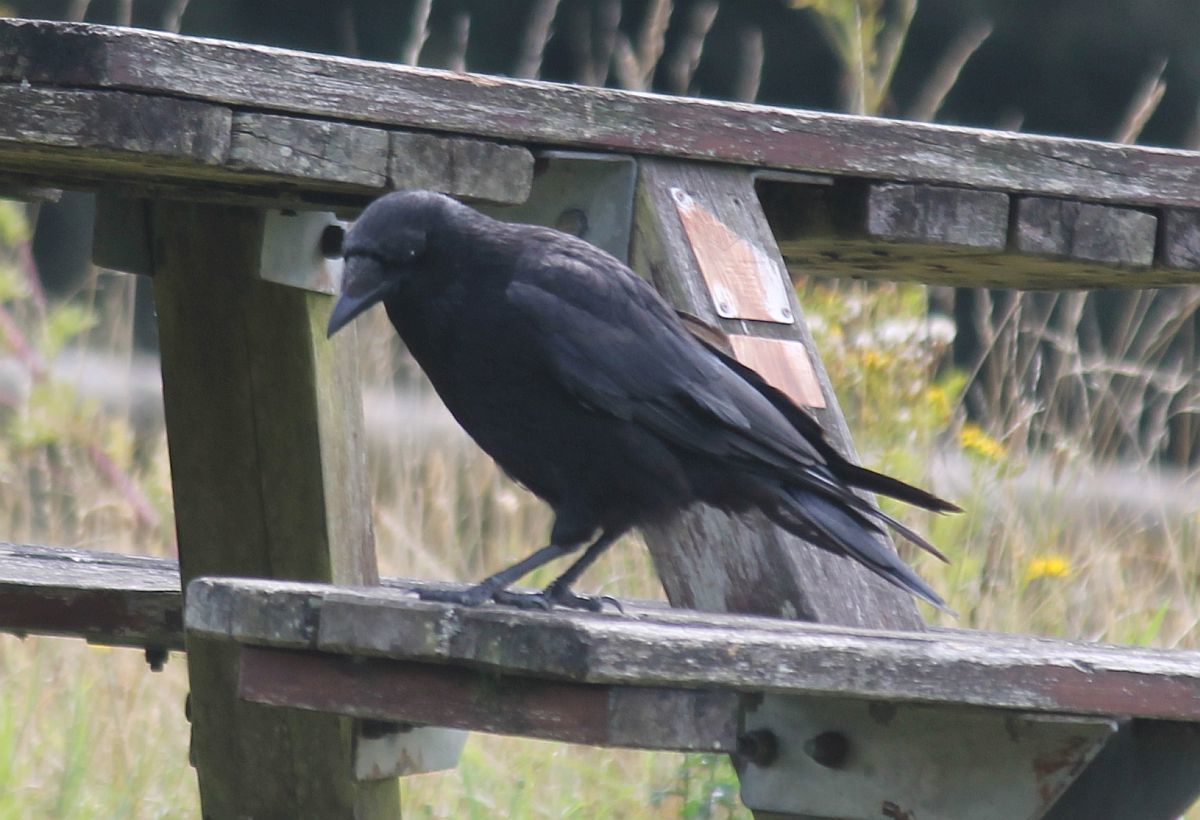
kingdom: Animalia
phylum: Chordata
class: Aves
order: Passeriformes
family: Corvidae
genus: Corvus
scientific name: Corvus corone
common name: Carrion crow
